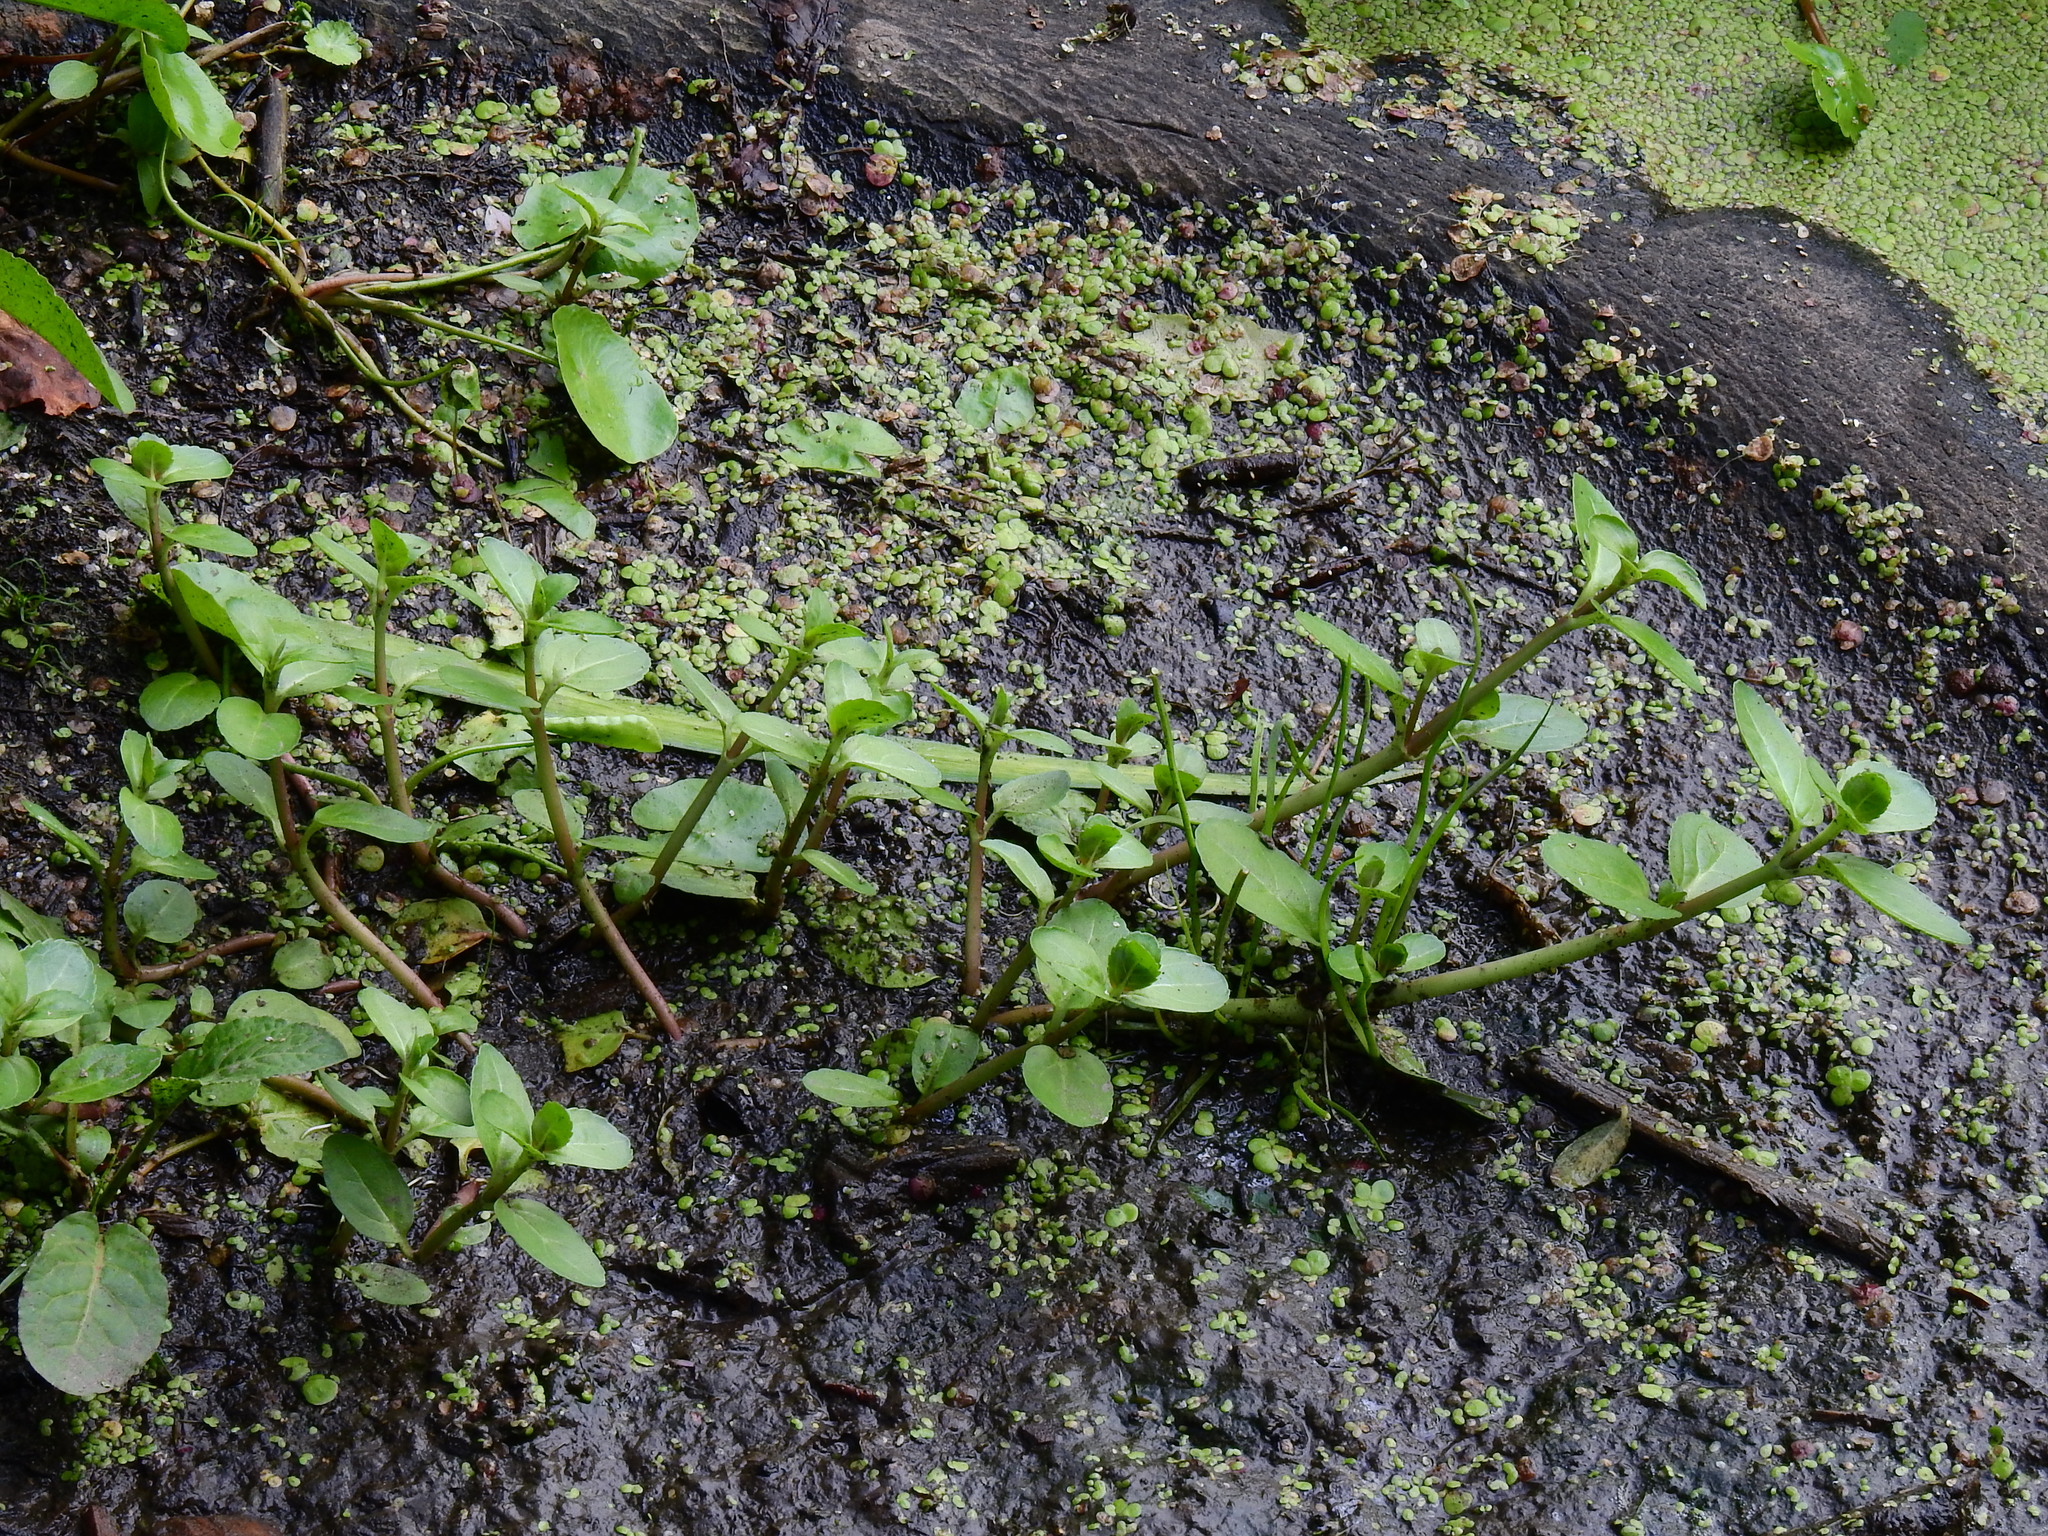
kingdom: Plantae
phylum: Tracheophyta
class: Magnoliopsida
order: Lamiales
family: Plantaginaceae
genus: Veronica
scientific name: Veronica beccabunga
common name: Brooklime
